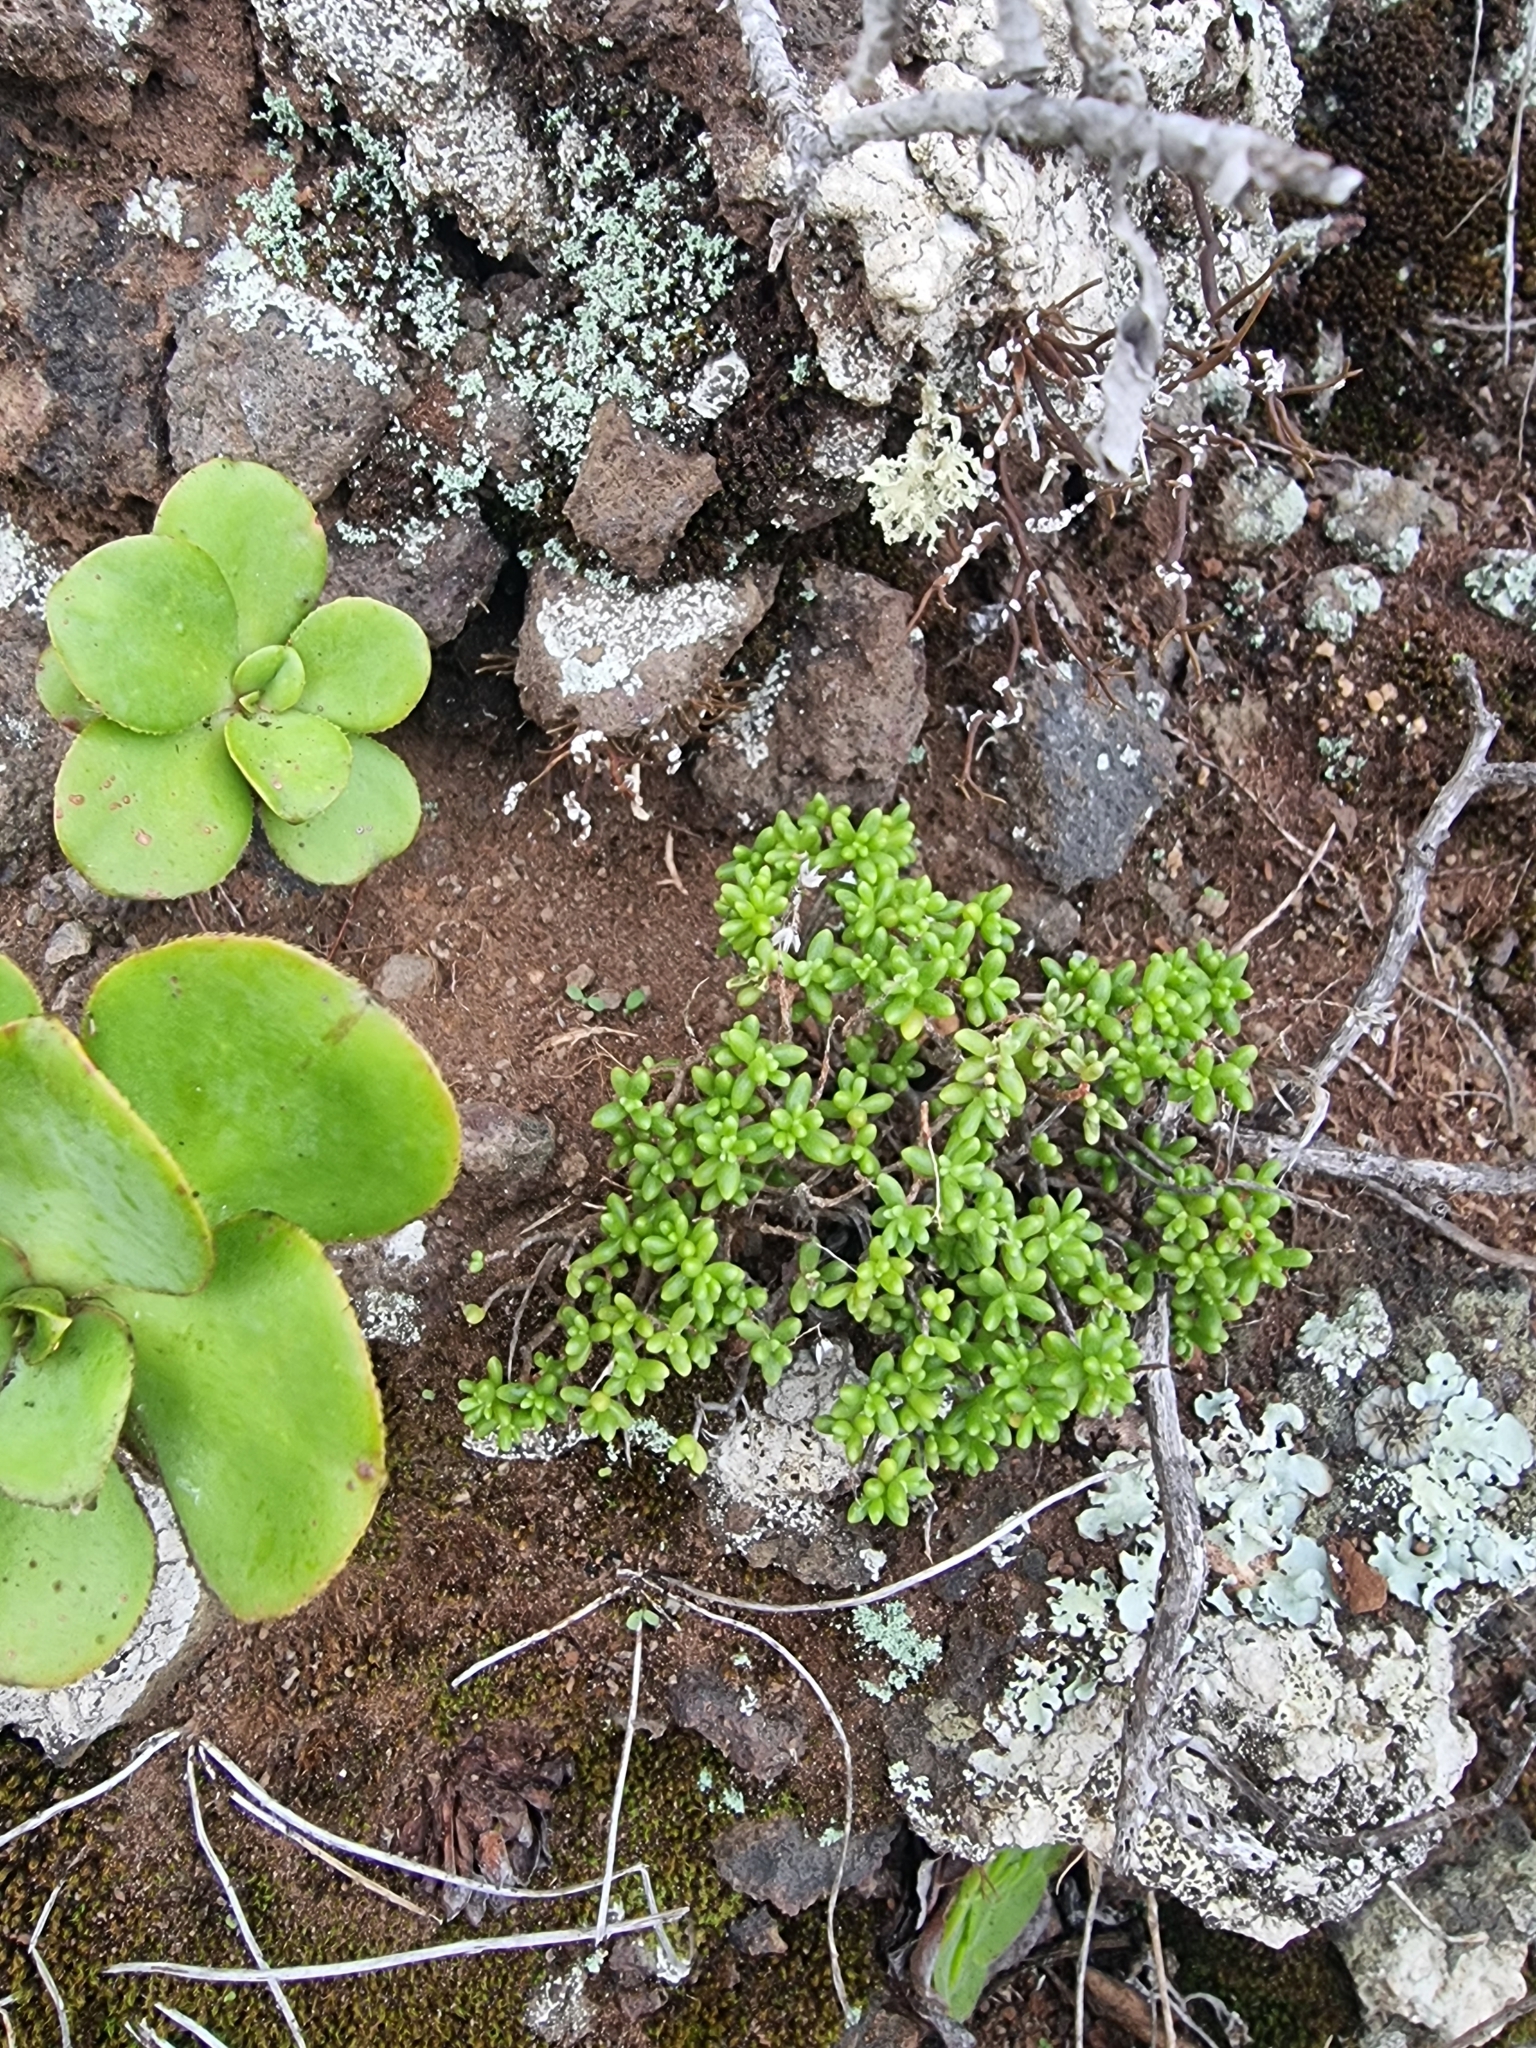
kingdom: Plantae
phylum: Tracheophyta
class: Magnoliopsida
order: Saxifragales
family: Crassulaceae
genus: Sedum
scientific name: Sedum brissemoretii
